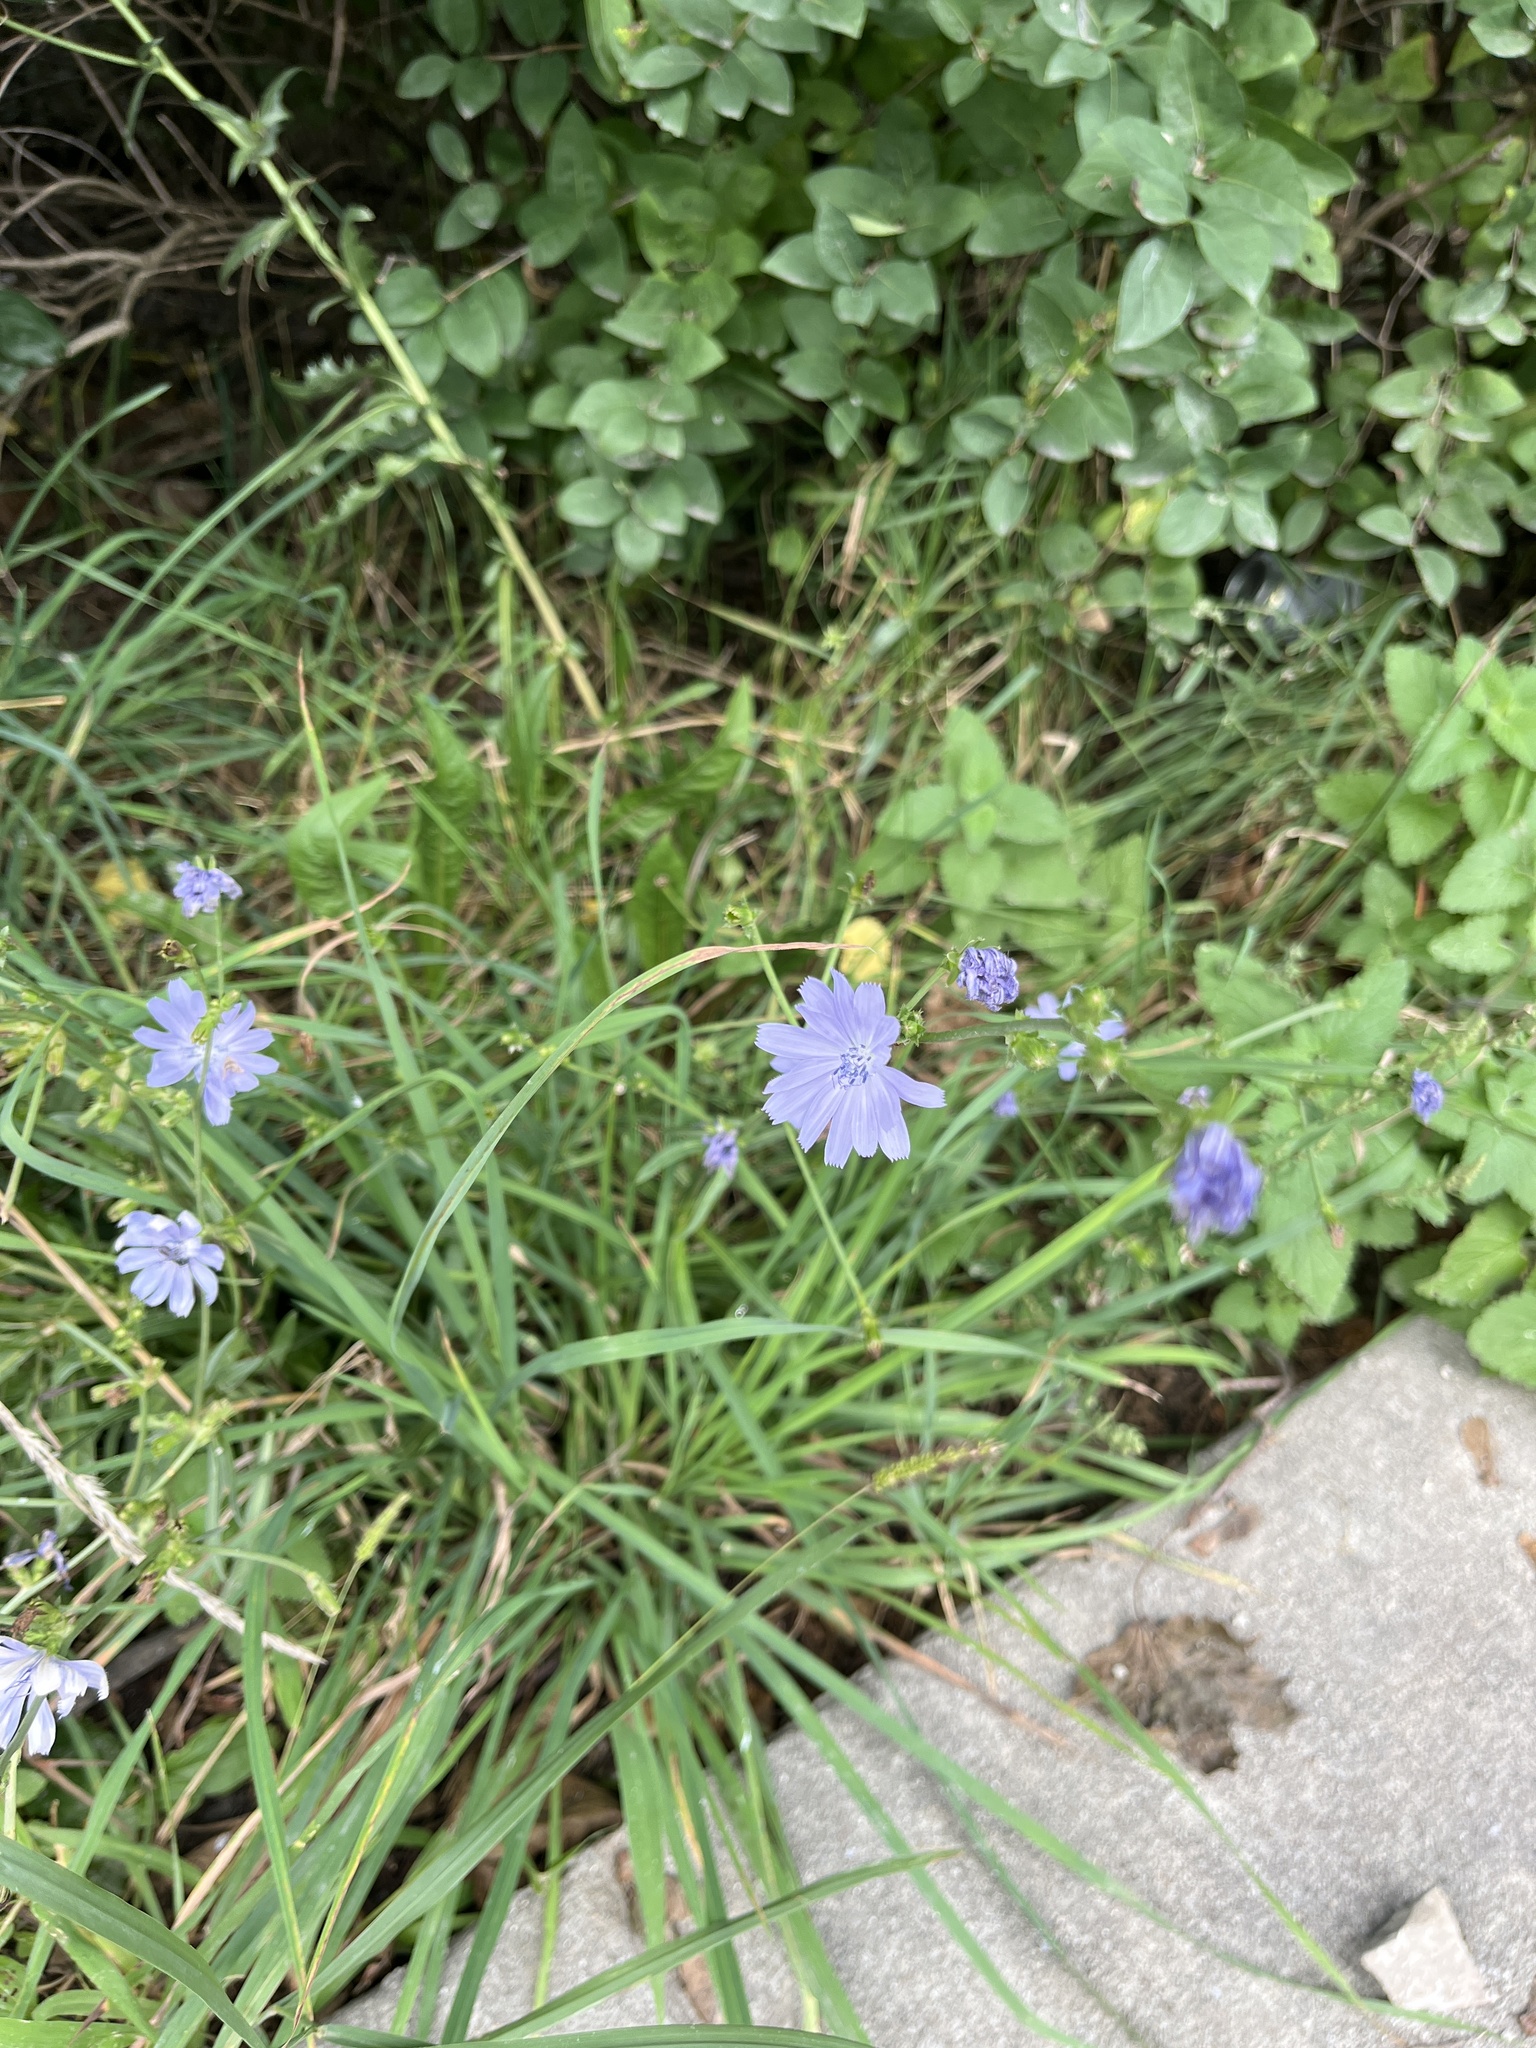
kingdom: Plantae
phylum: Tracheophyta
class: Magnoliopsida
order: Asterales
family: Asteraceae
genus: Cichorium
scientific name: Cichorium intybus
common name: Chicory
